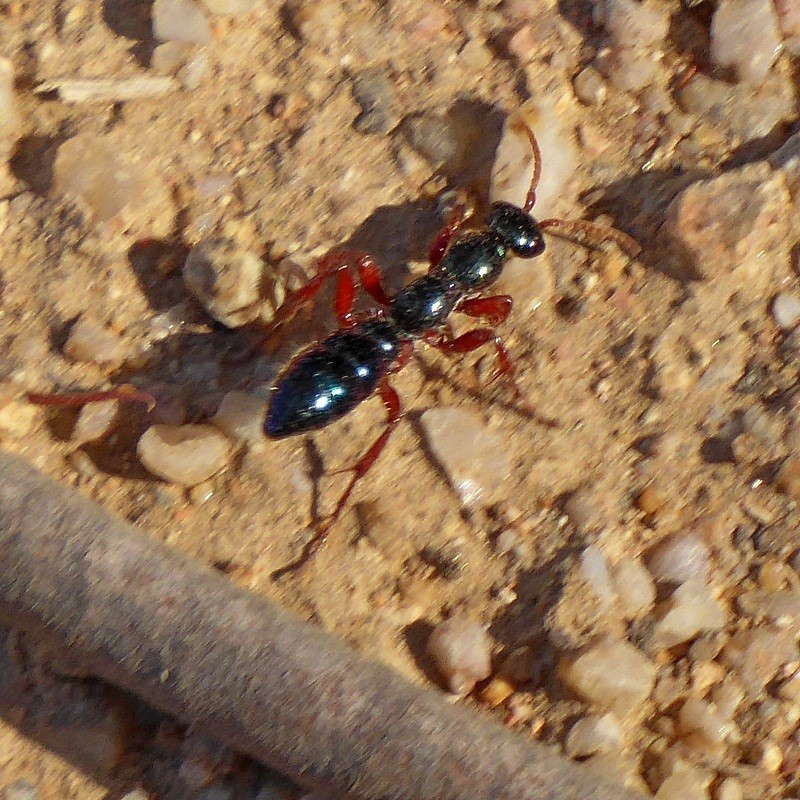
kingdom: Animalia
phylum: Arthropoda
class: Insecta
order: Hymenoptera
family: Tiphiidae
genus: Diamma
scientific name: Diamma
